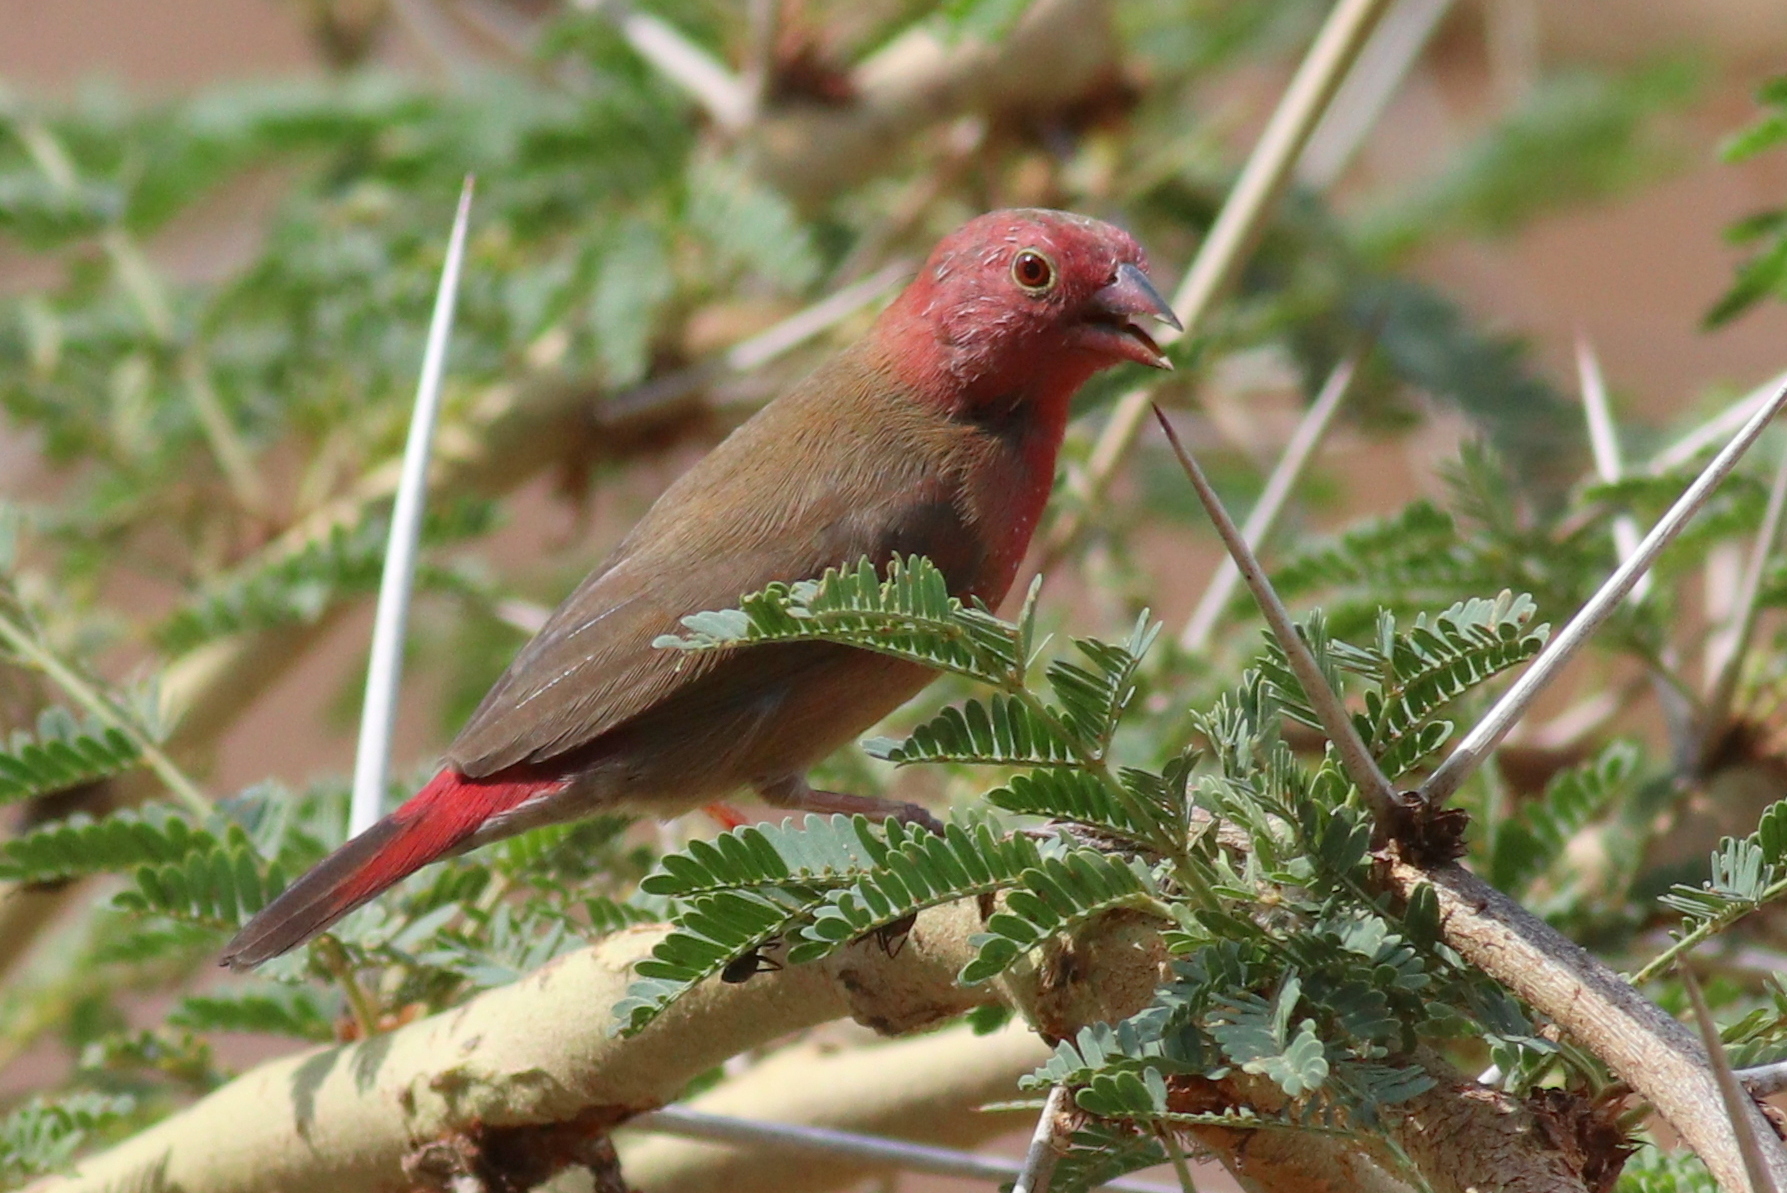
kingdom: Animalia
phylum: Chordata
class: Aves
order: Passeriformes
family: Estrildidae
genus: Lagonosticta
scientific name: Lagonosticta senegala
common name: Red-billed firefinch
